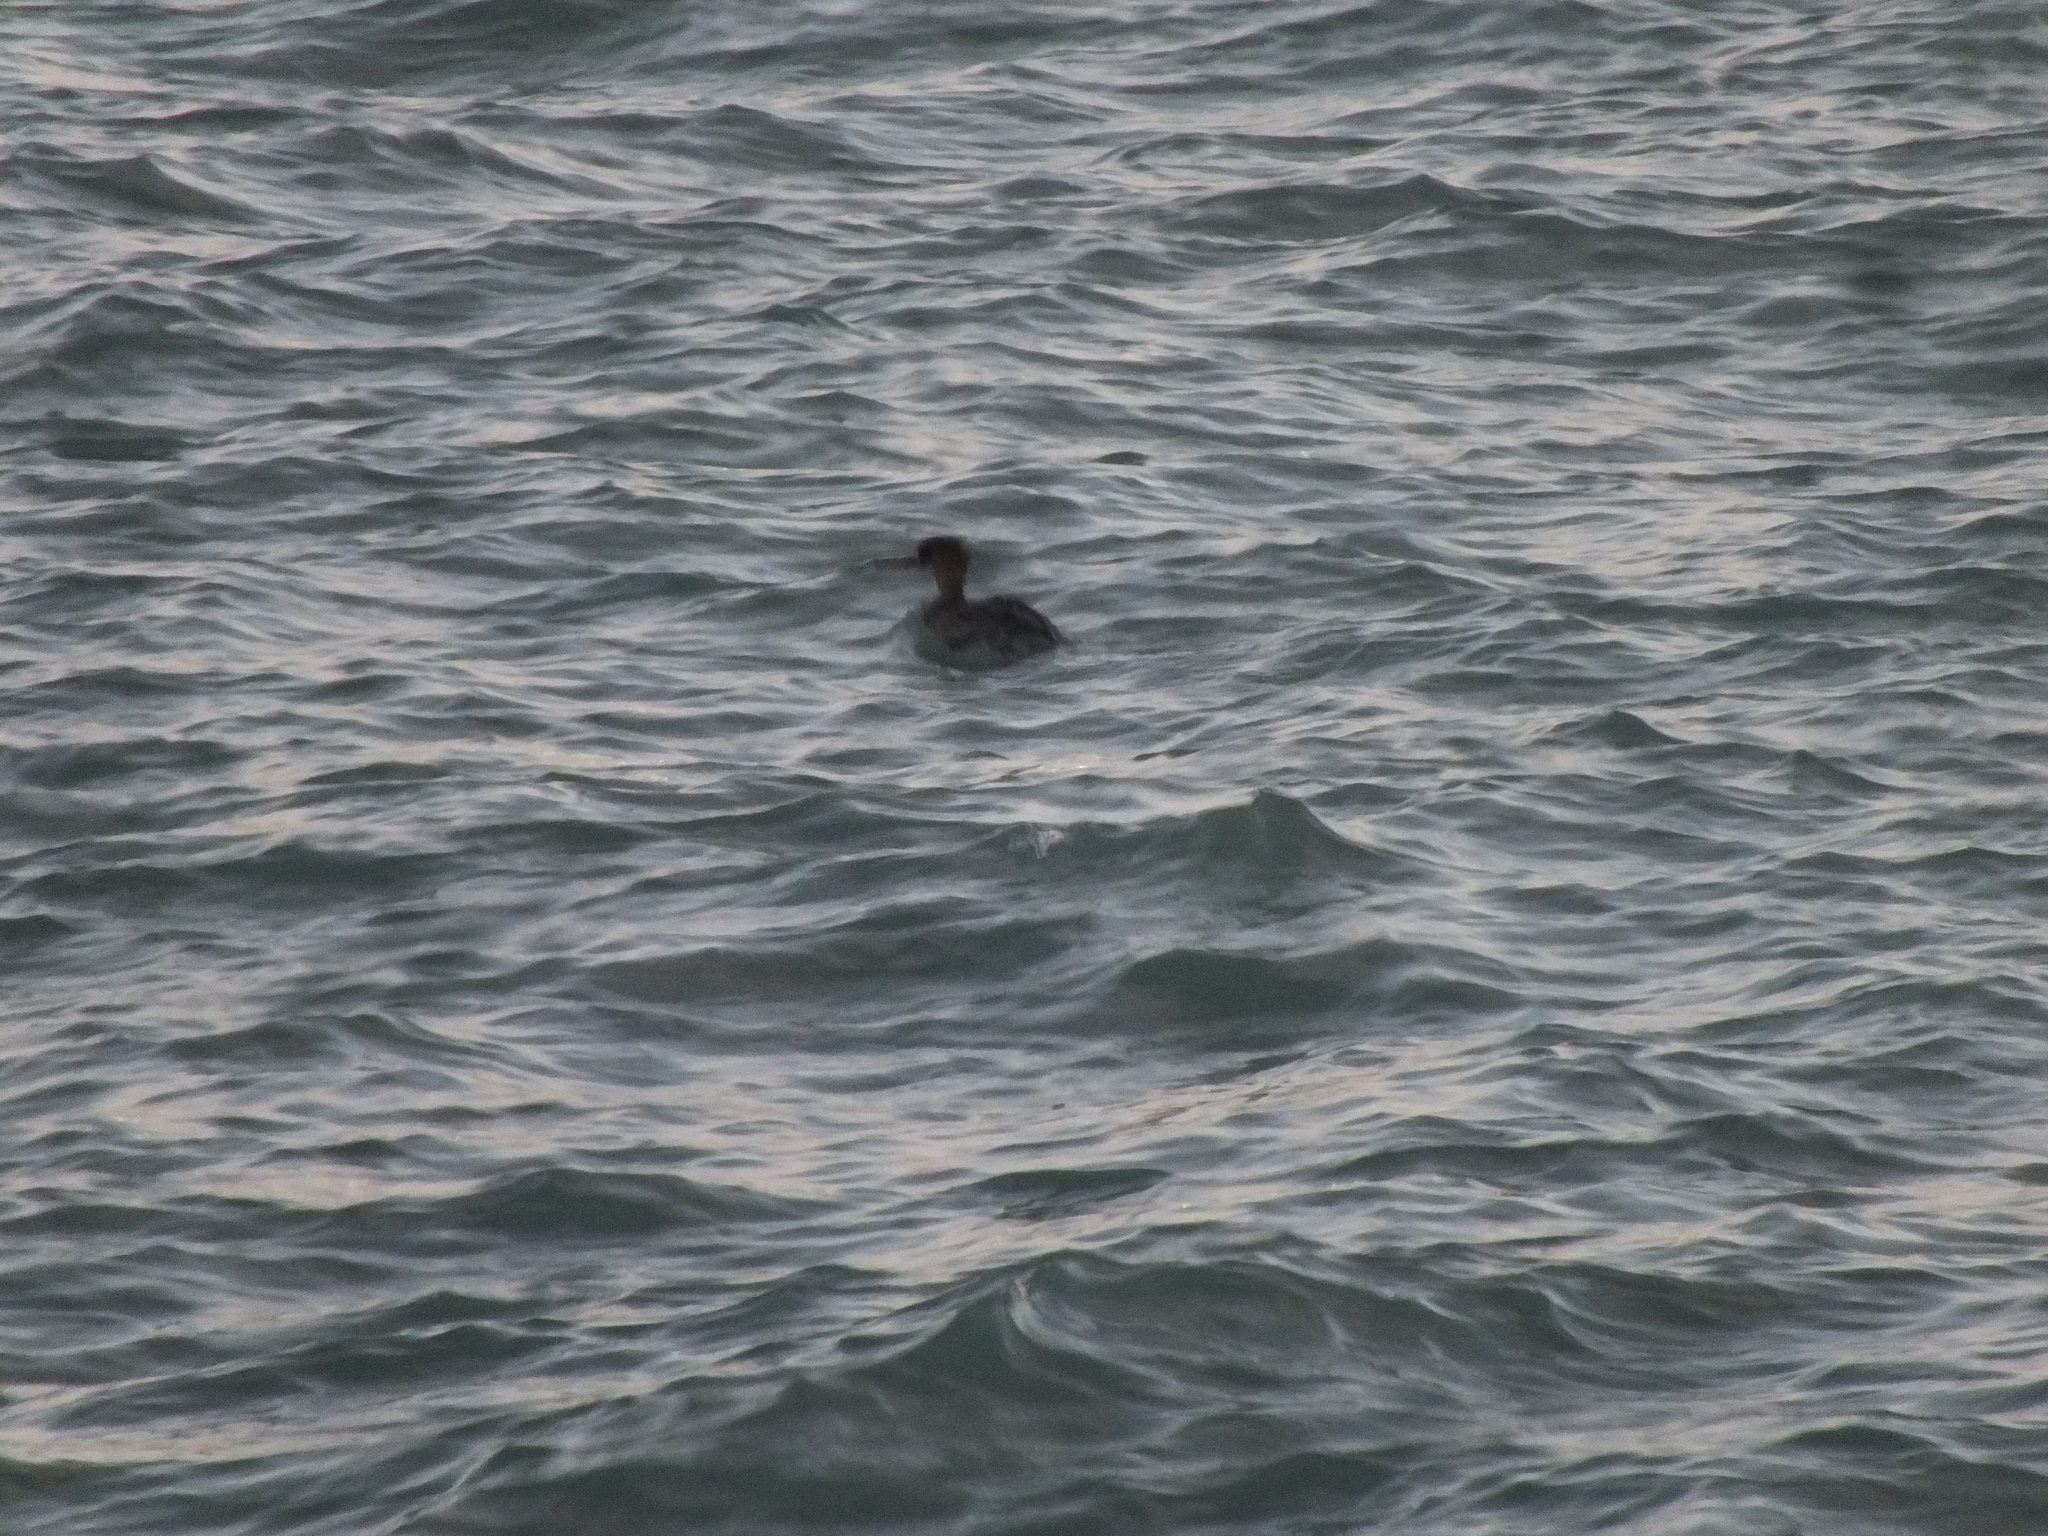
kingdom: Animalia
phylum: Chordata
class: Aves
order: Anseriformes
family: Anatidae
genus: Mergus
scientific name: Mergus serrator
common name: Red-breasted merganser
